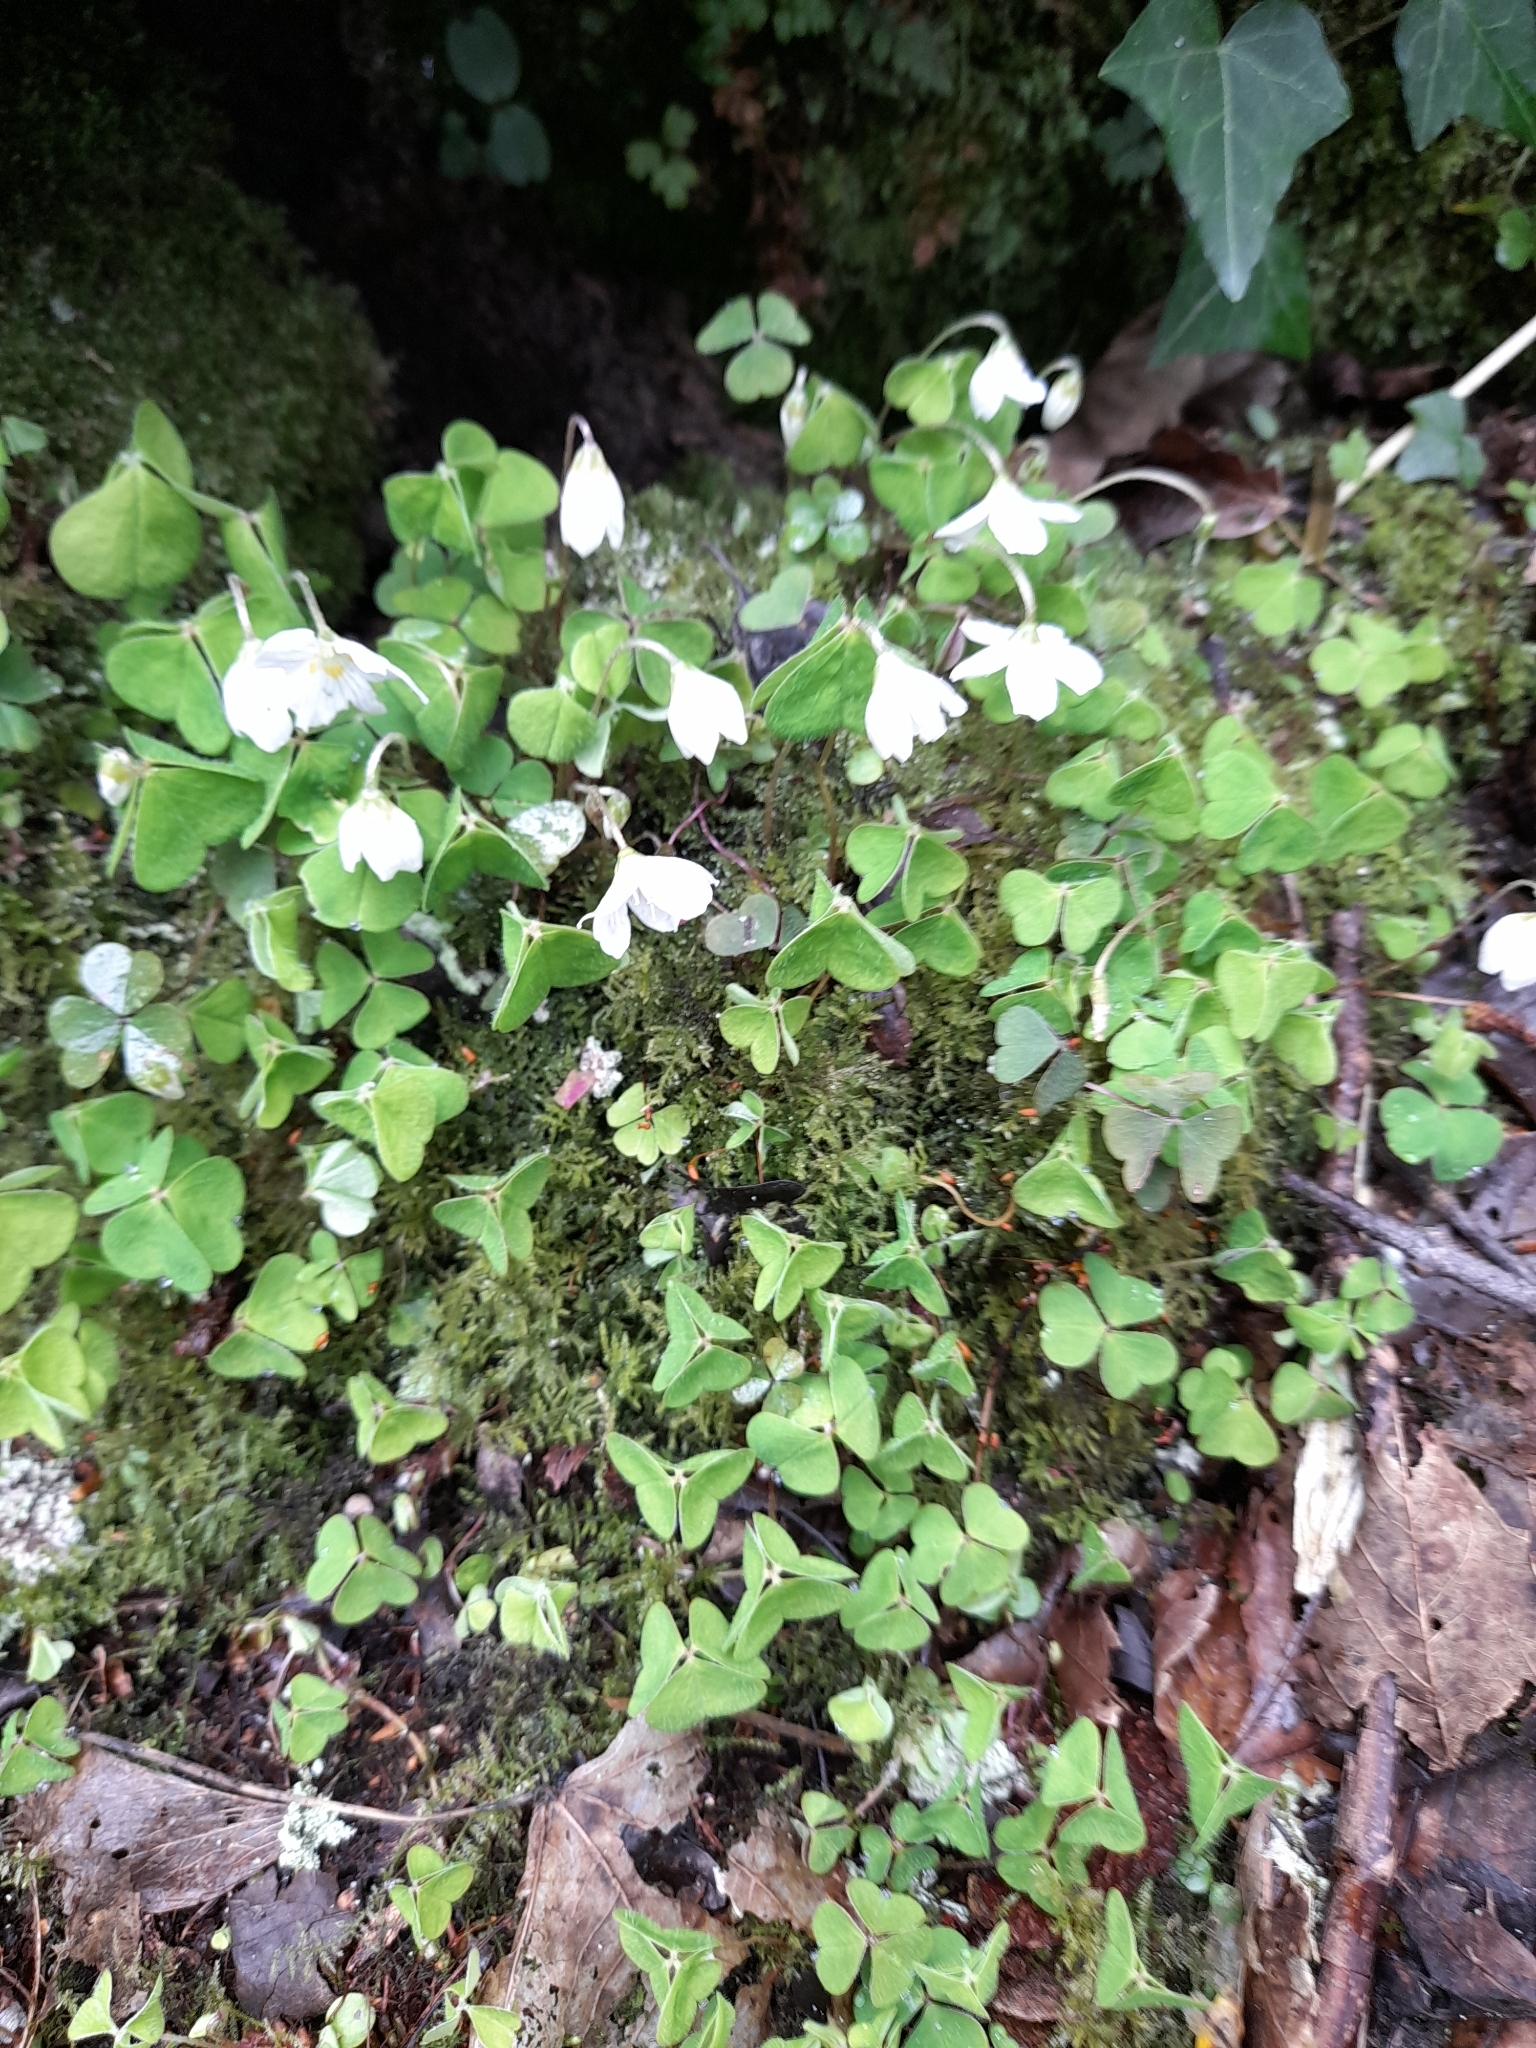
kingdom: Plantae
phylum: Tracheophyta
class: Magnoliopsida
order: Oxalidales
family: Oxalidaceae
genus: Oxalis
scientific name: Oxalis acetosella
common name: Wood-sorrel
